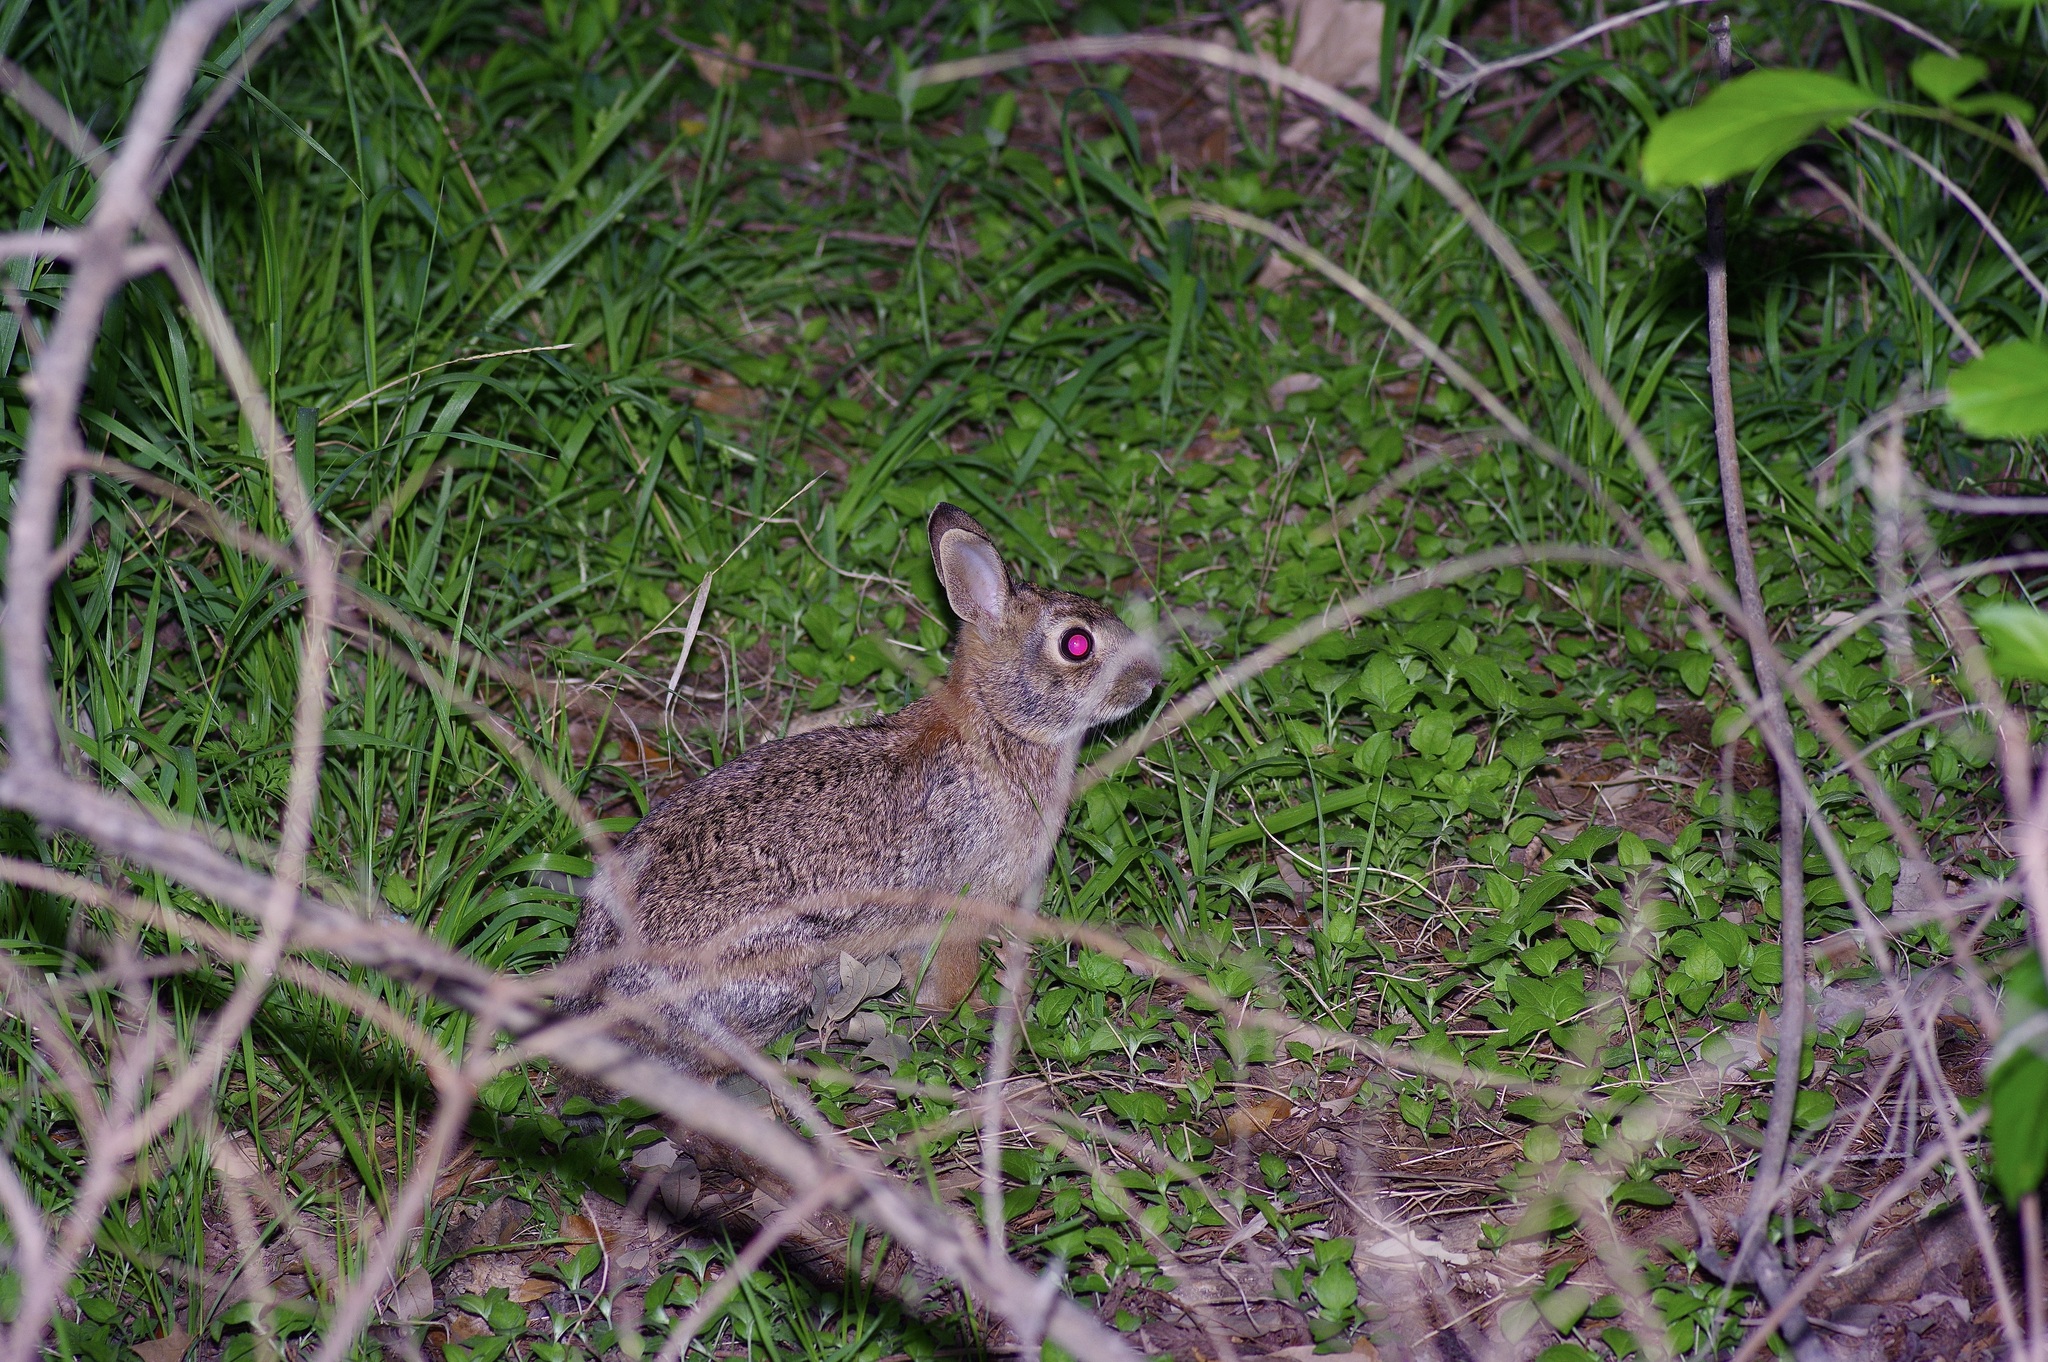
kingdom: Animalia
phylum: Chordata
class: Mammalia
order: Lagomorpha
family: Leporidae
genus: Sylvilagus
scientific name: Sylvilagus floridanus
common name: Eastern cottontail
